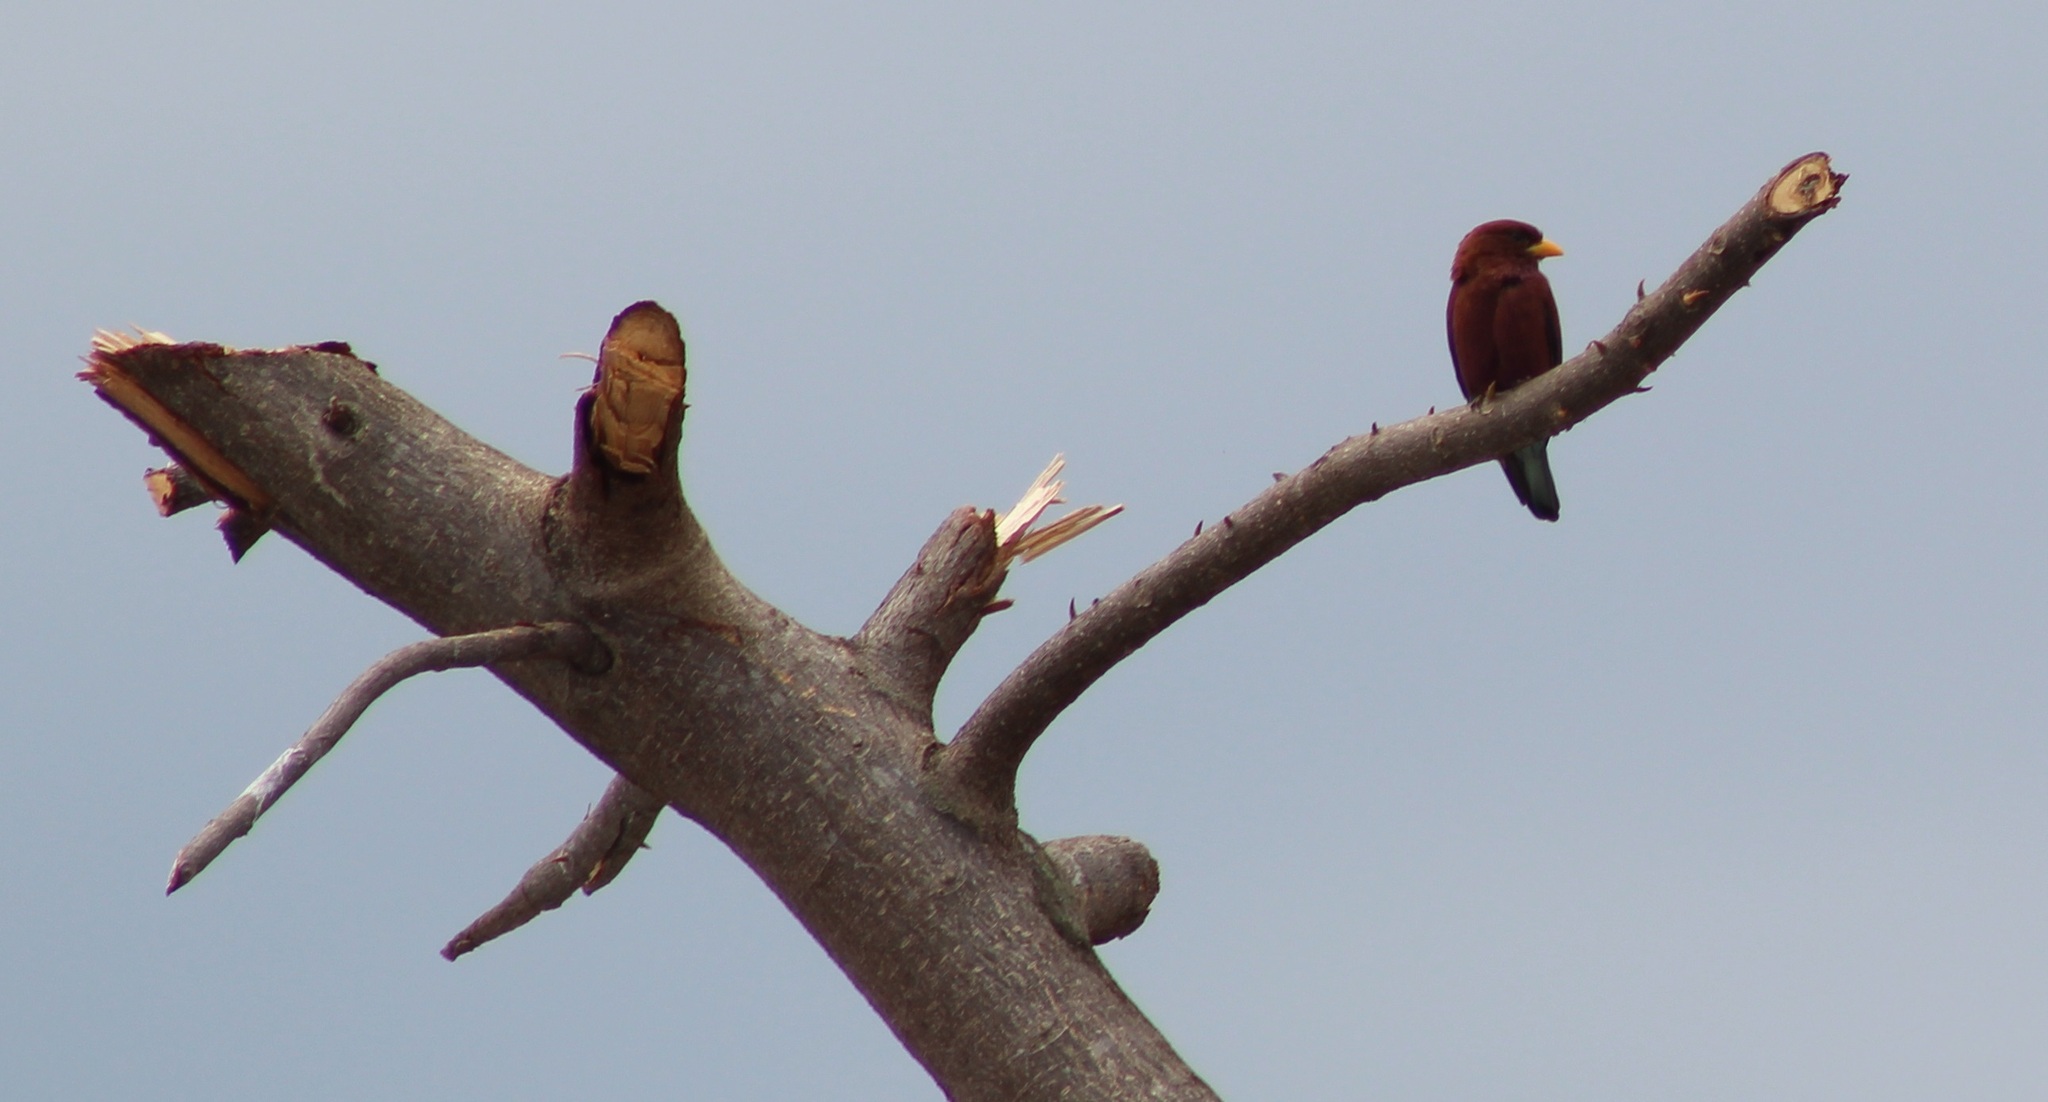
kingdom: Animalia
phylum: Chordata
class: Aves
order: Coraciiformes
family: Coraciidae
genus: Eurystomus
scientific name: Eurystomus glaucurus
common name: Broad-billed roller
